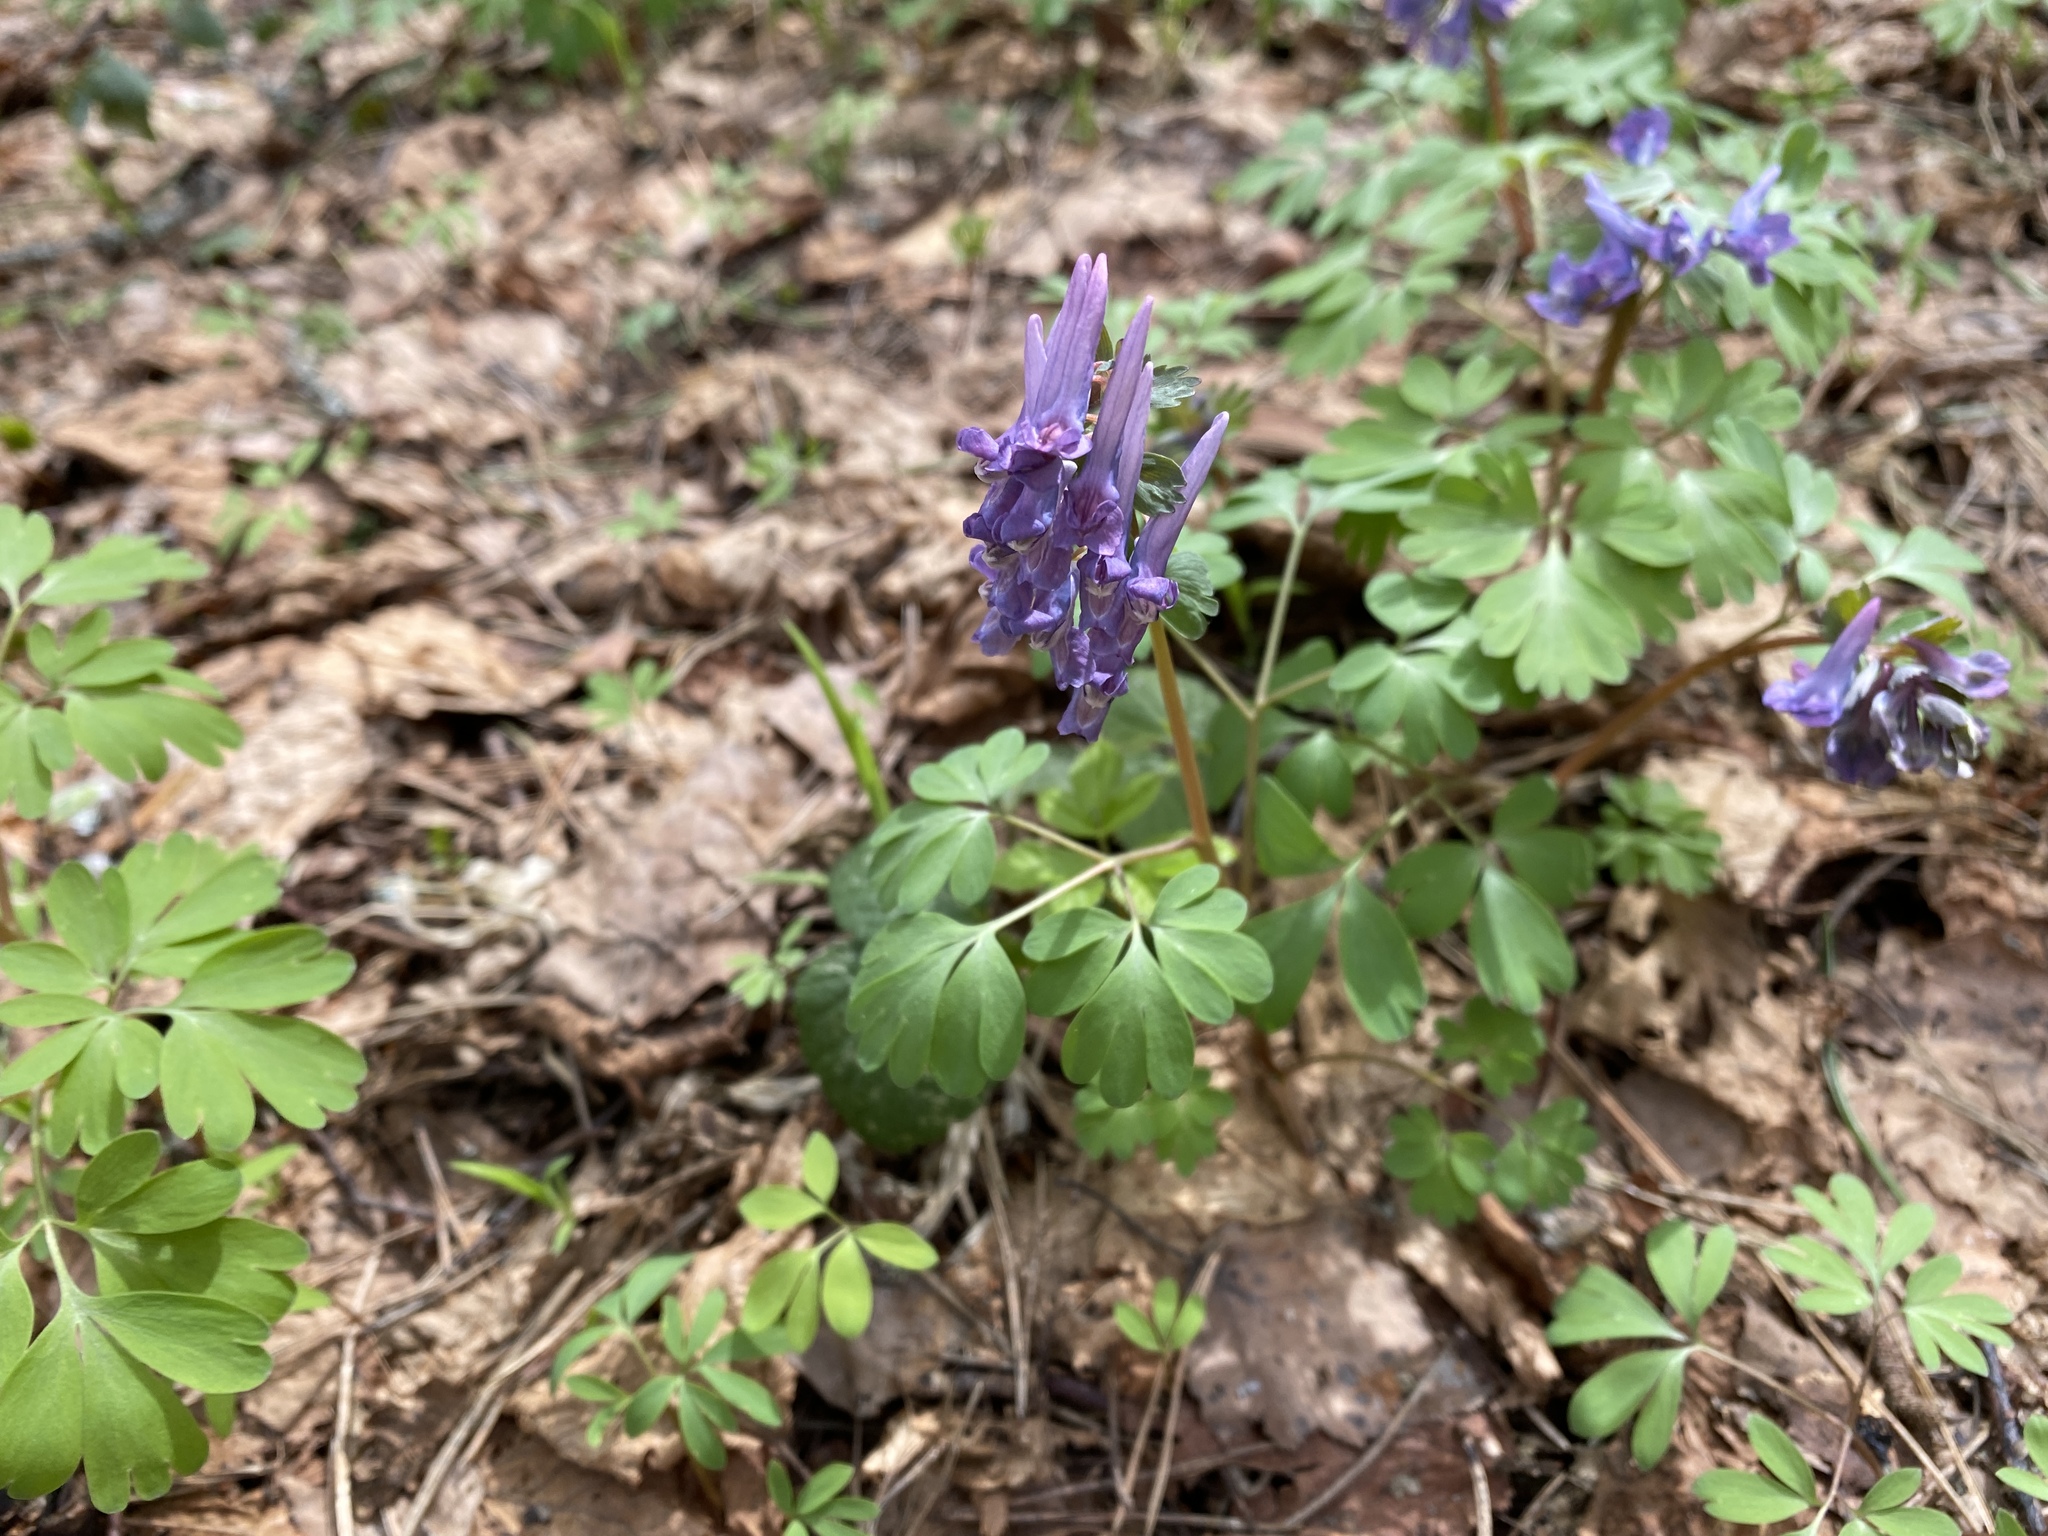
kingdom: Plantae
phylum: Tracheophyta
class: Magnoliopsida
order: Ranunculales
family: Papaveraceae
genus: Corydalis
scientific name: Corydalis solida
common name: Bird-in-a-bush
